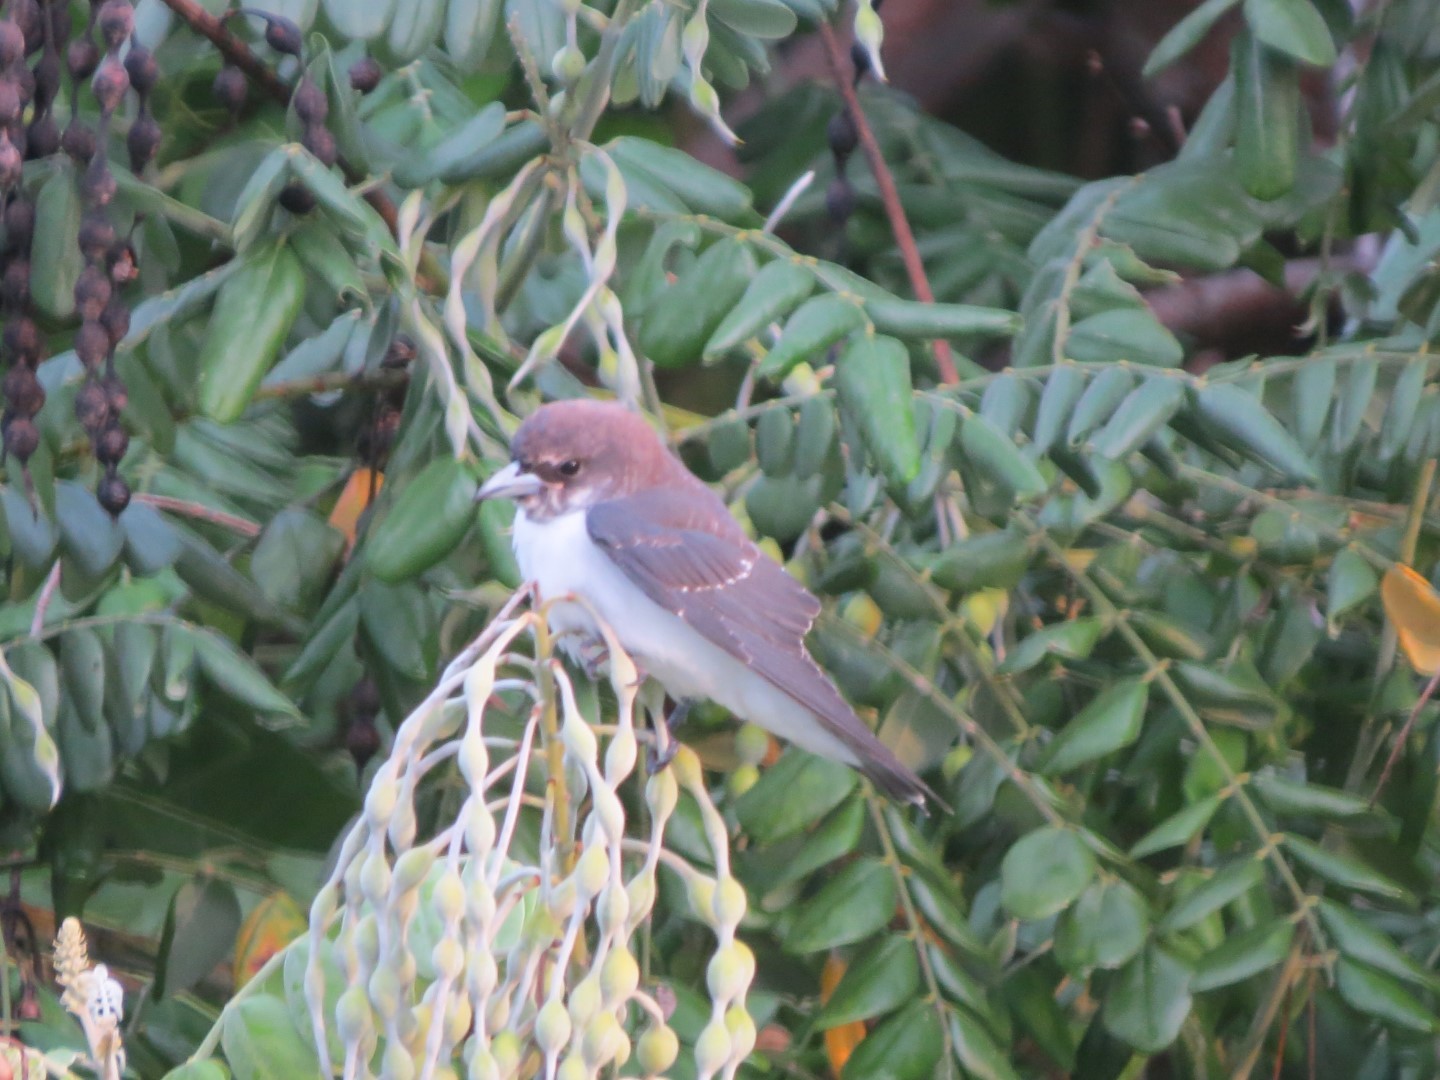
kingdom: Animalia
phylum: Chordata
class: Aves
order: Passeriformes
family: Artamidae
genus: Artamus
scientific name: Artamus leucoryn
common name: White-breasted woodswallow
